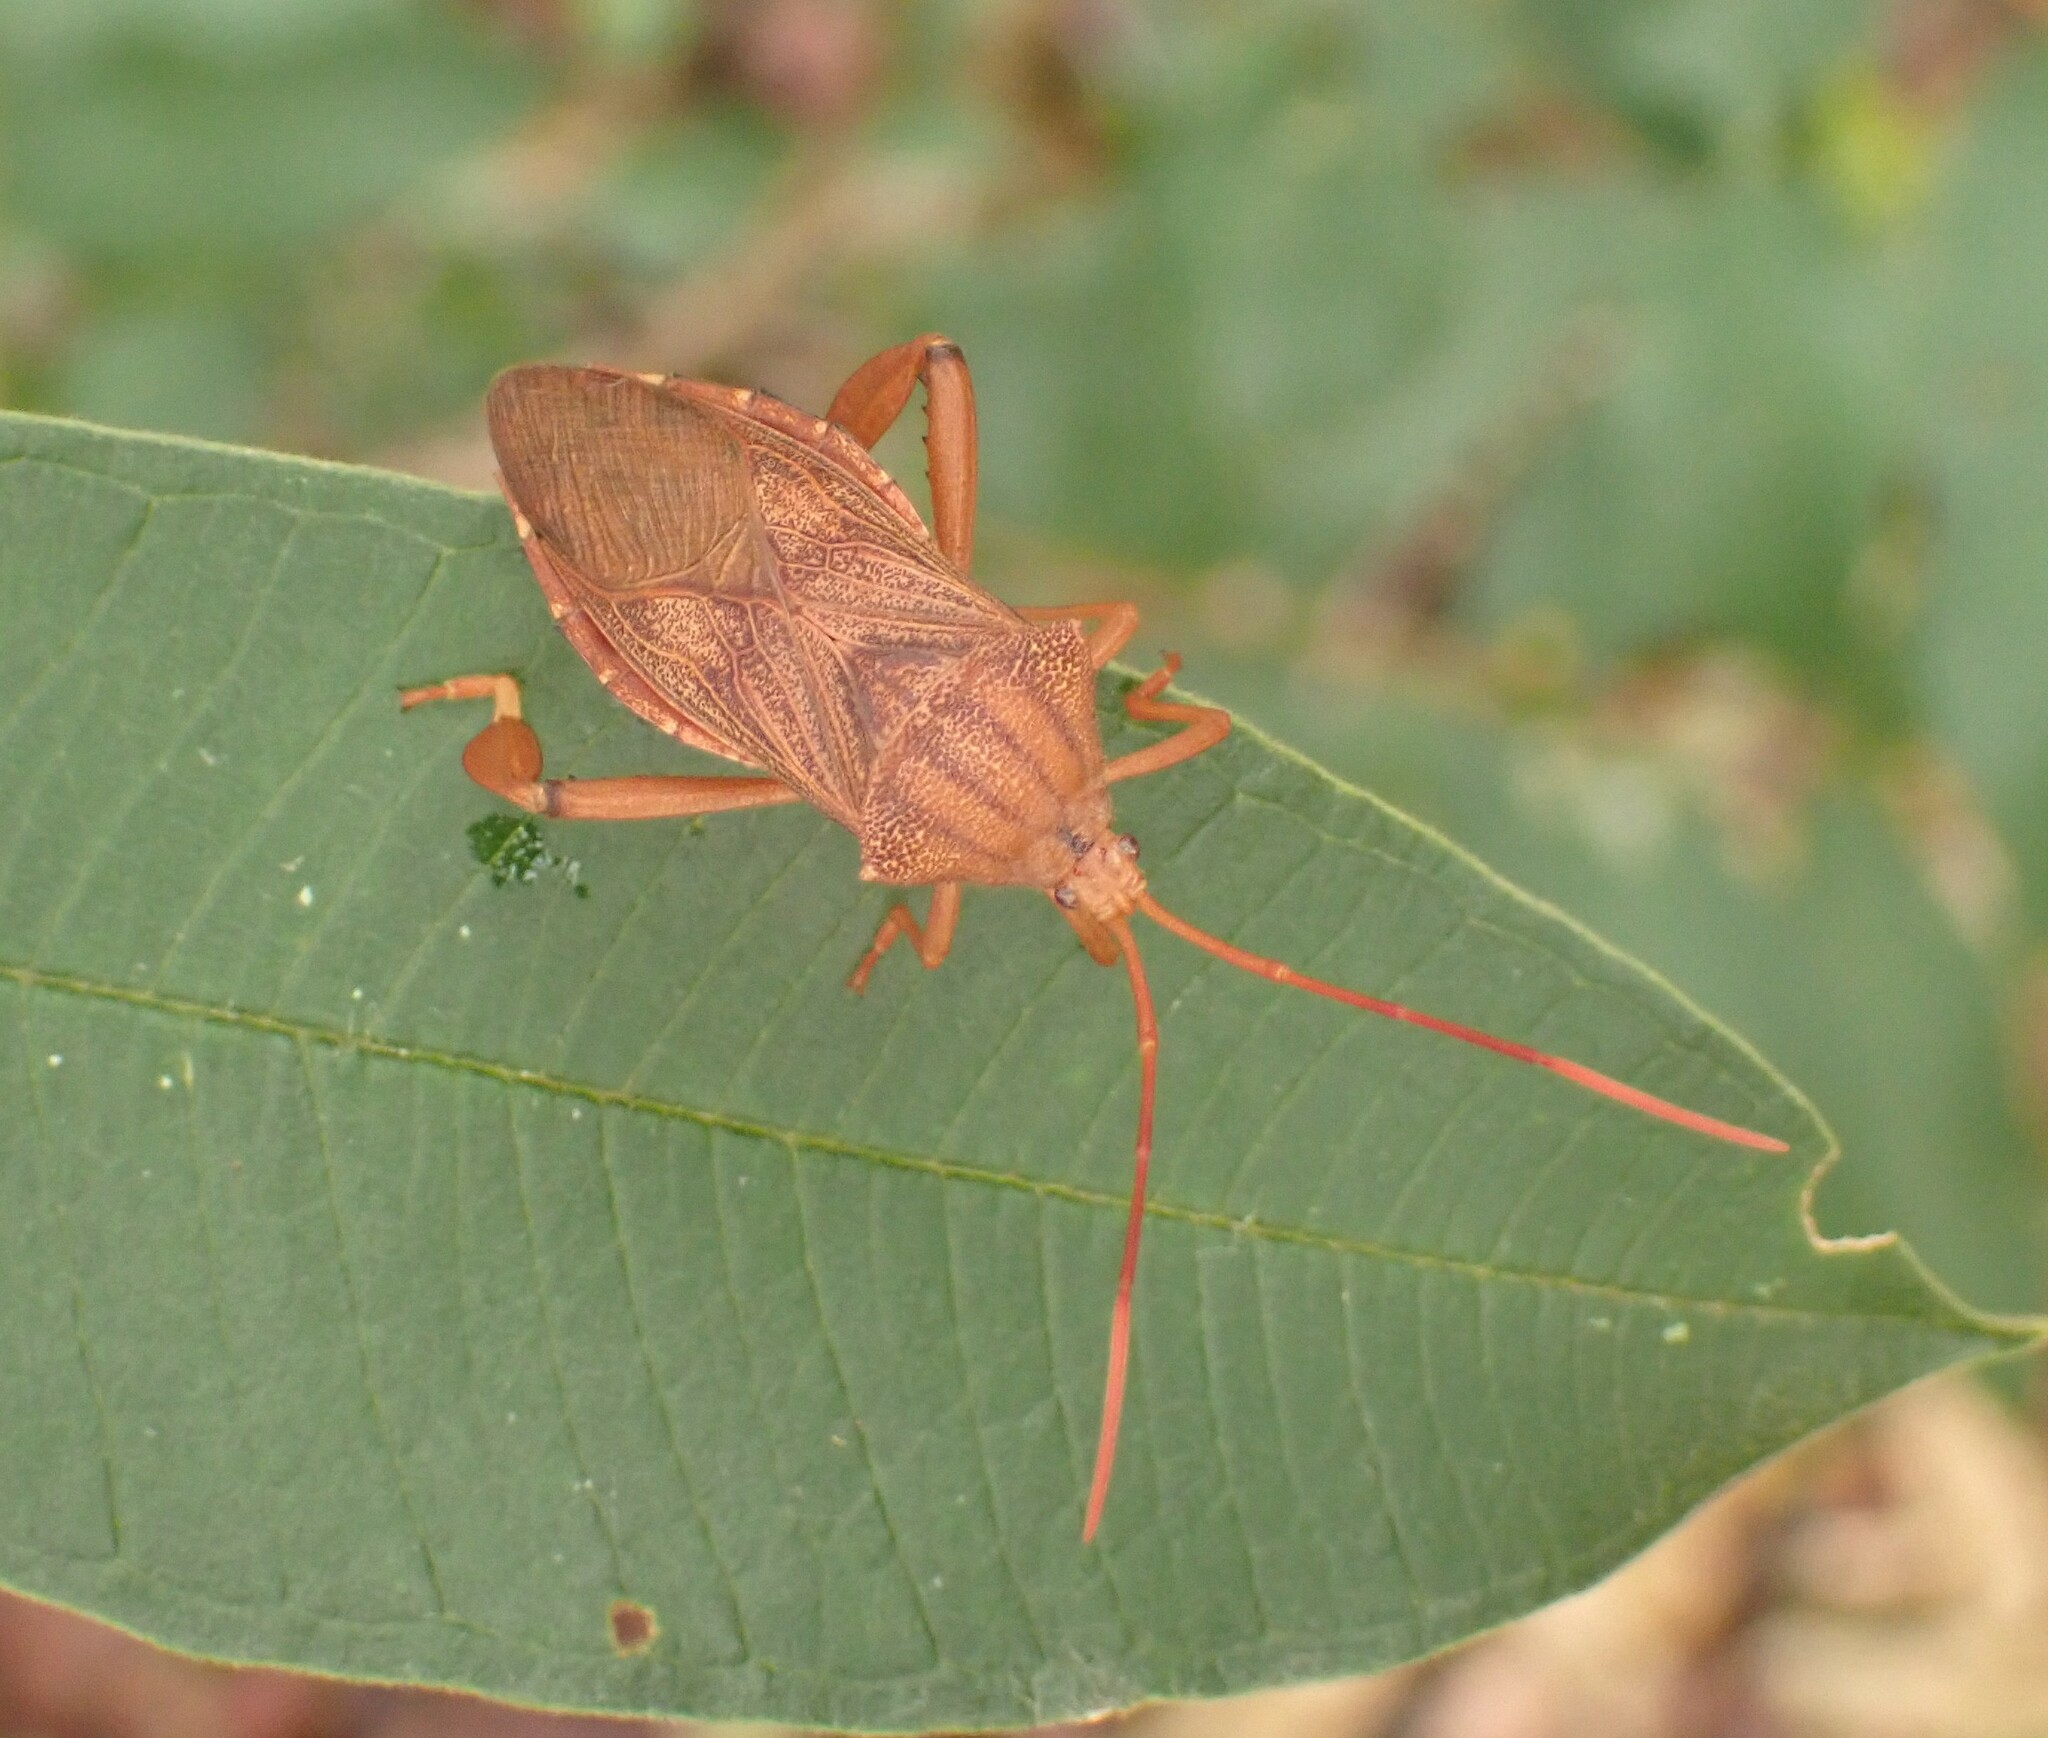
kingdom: Animalia
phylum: Arthropoda
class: Insecta
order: Hemiptera
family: Coreidae
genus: Melucha
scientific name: Melucha phyllocnemis
